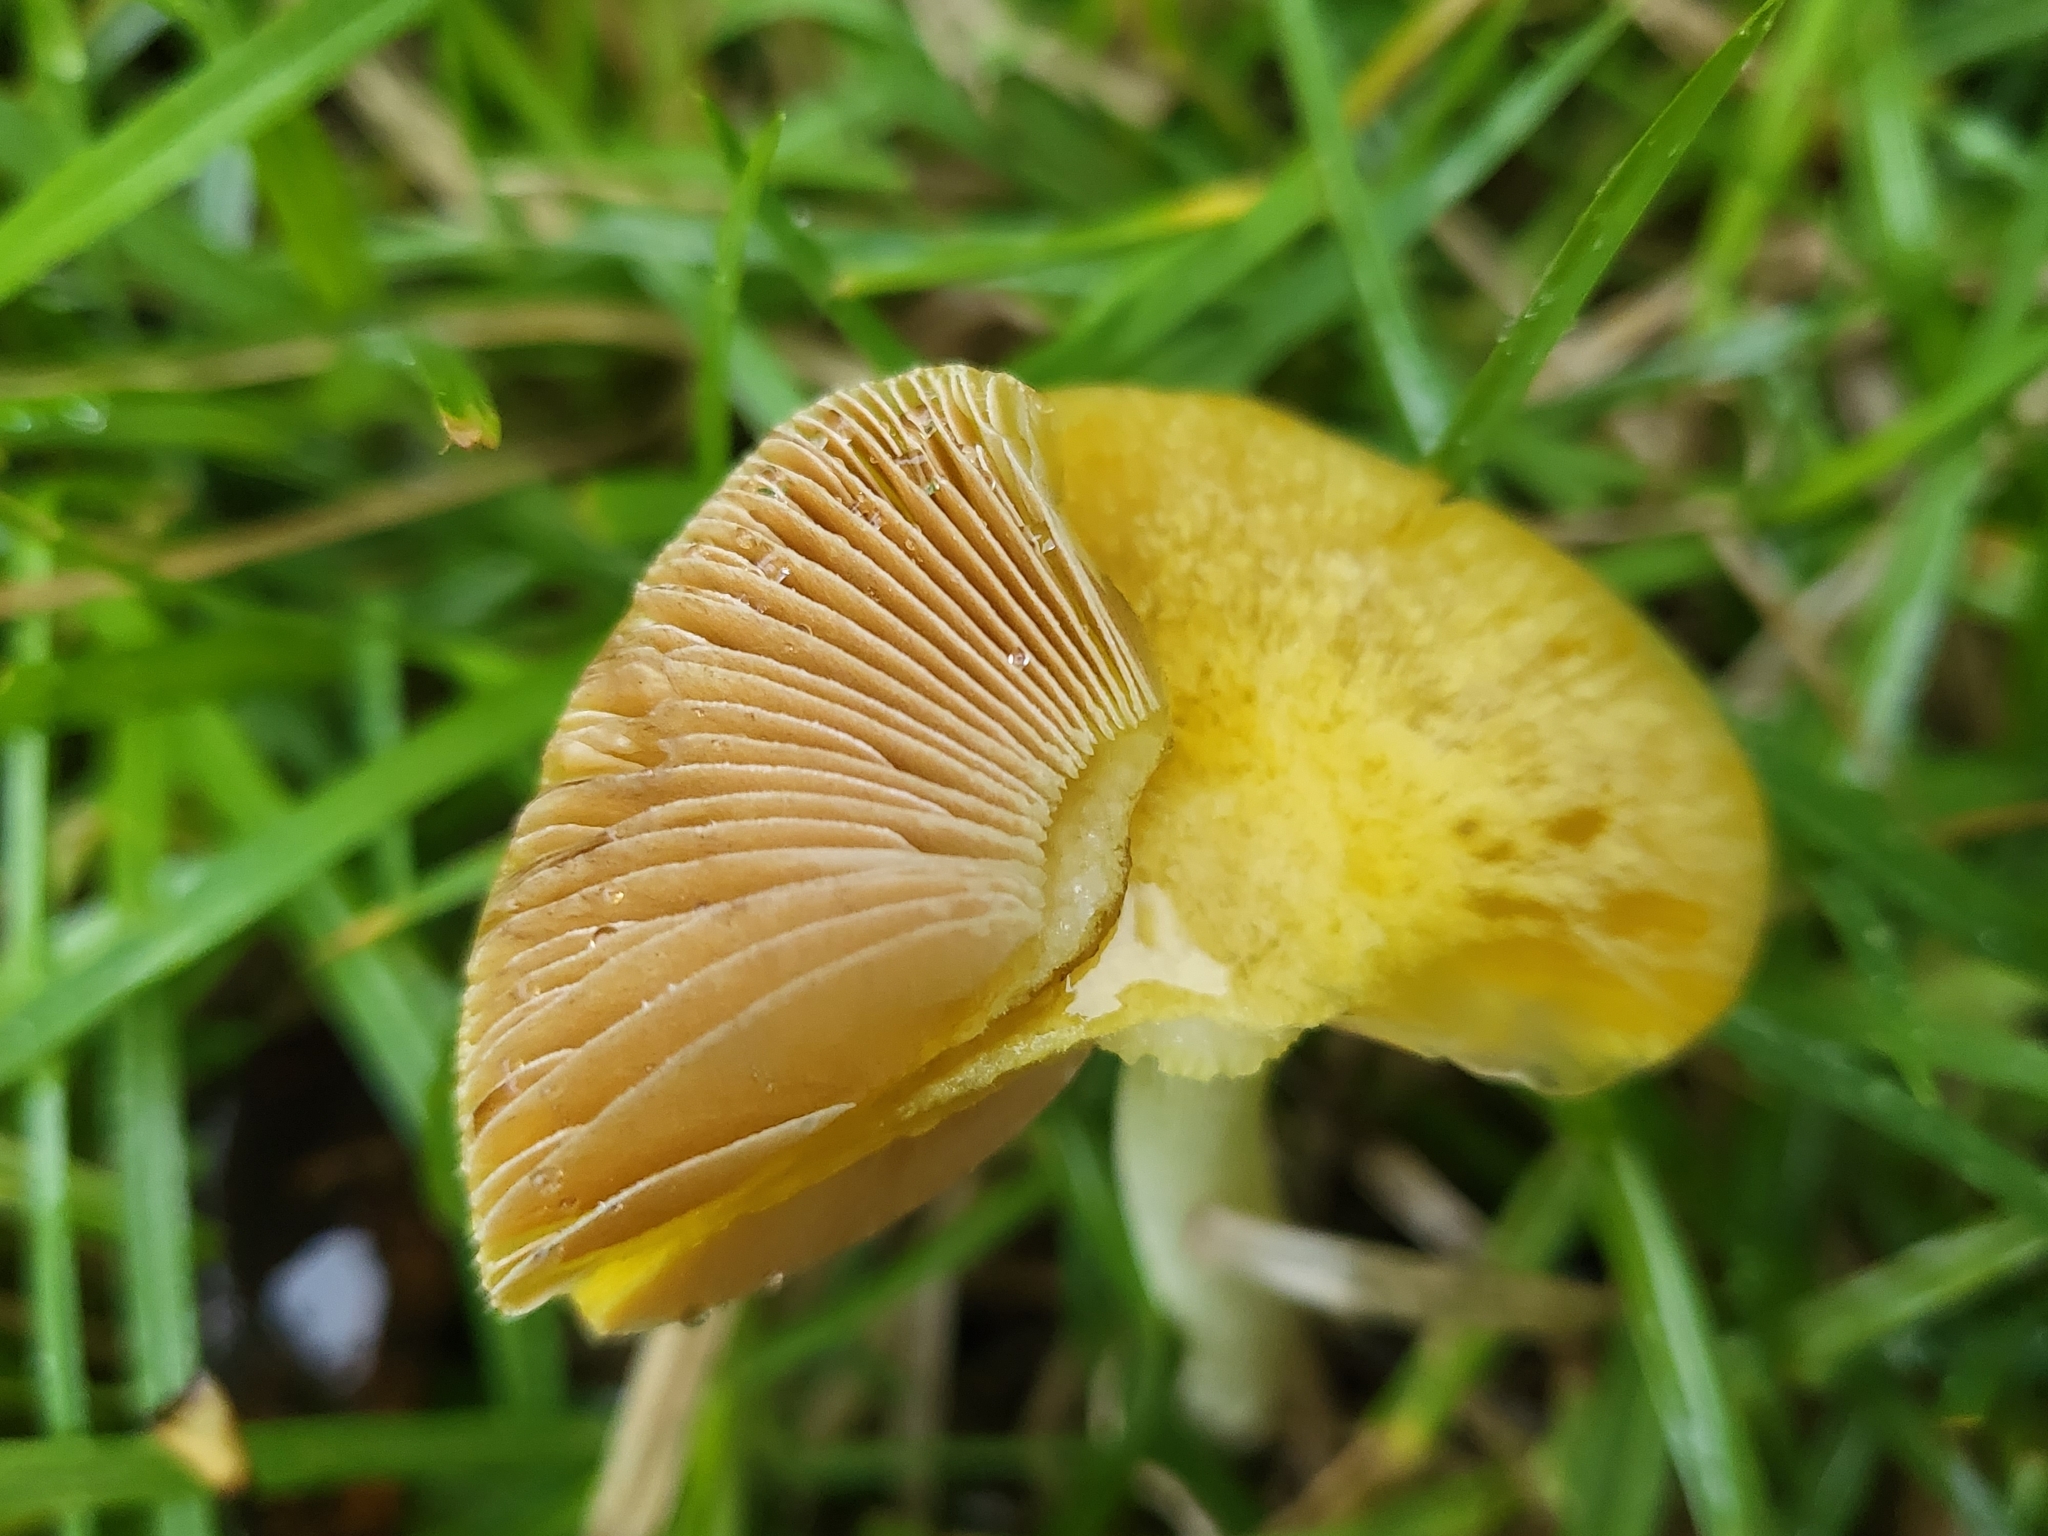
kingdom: Fungi
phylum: Basidiomycota
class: Agaricomycetes
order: Agaricales
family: Bolbitiaceae
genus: Bolbitius
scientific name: Bolbitius titubans
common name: Yellow fieldcap
